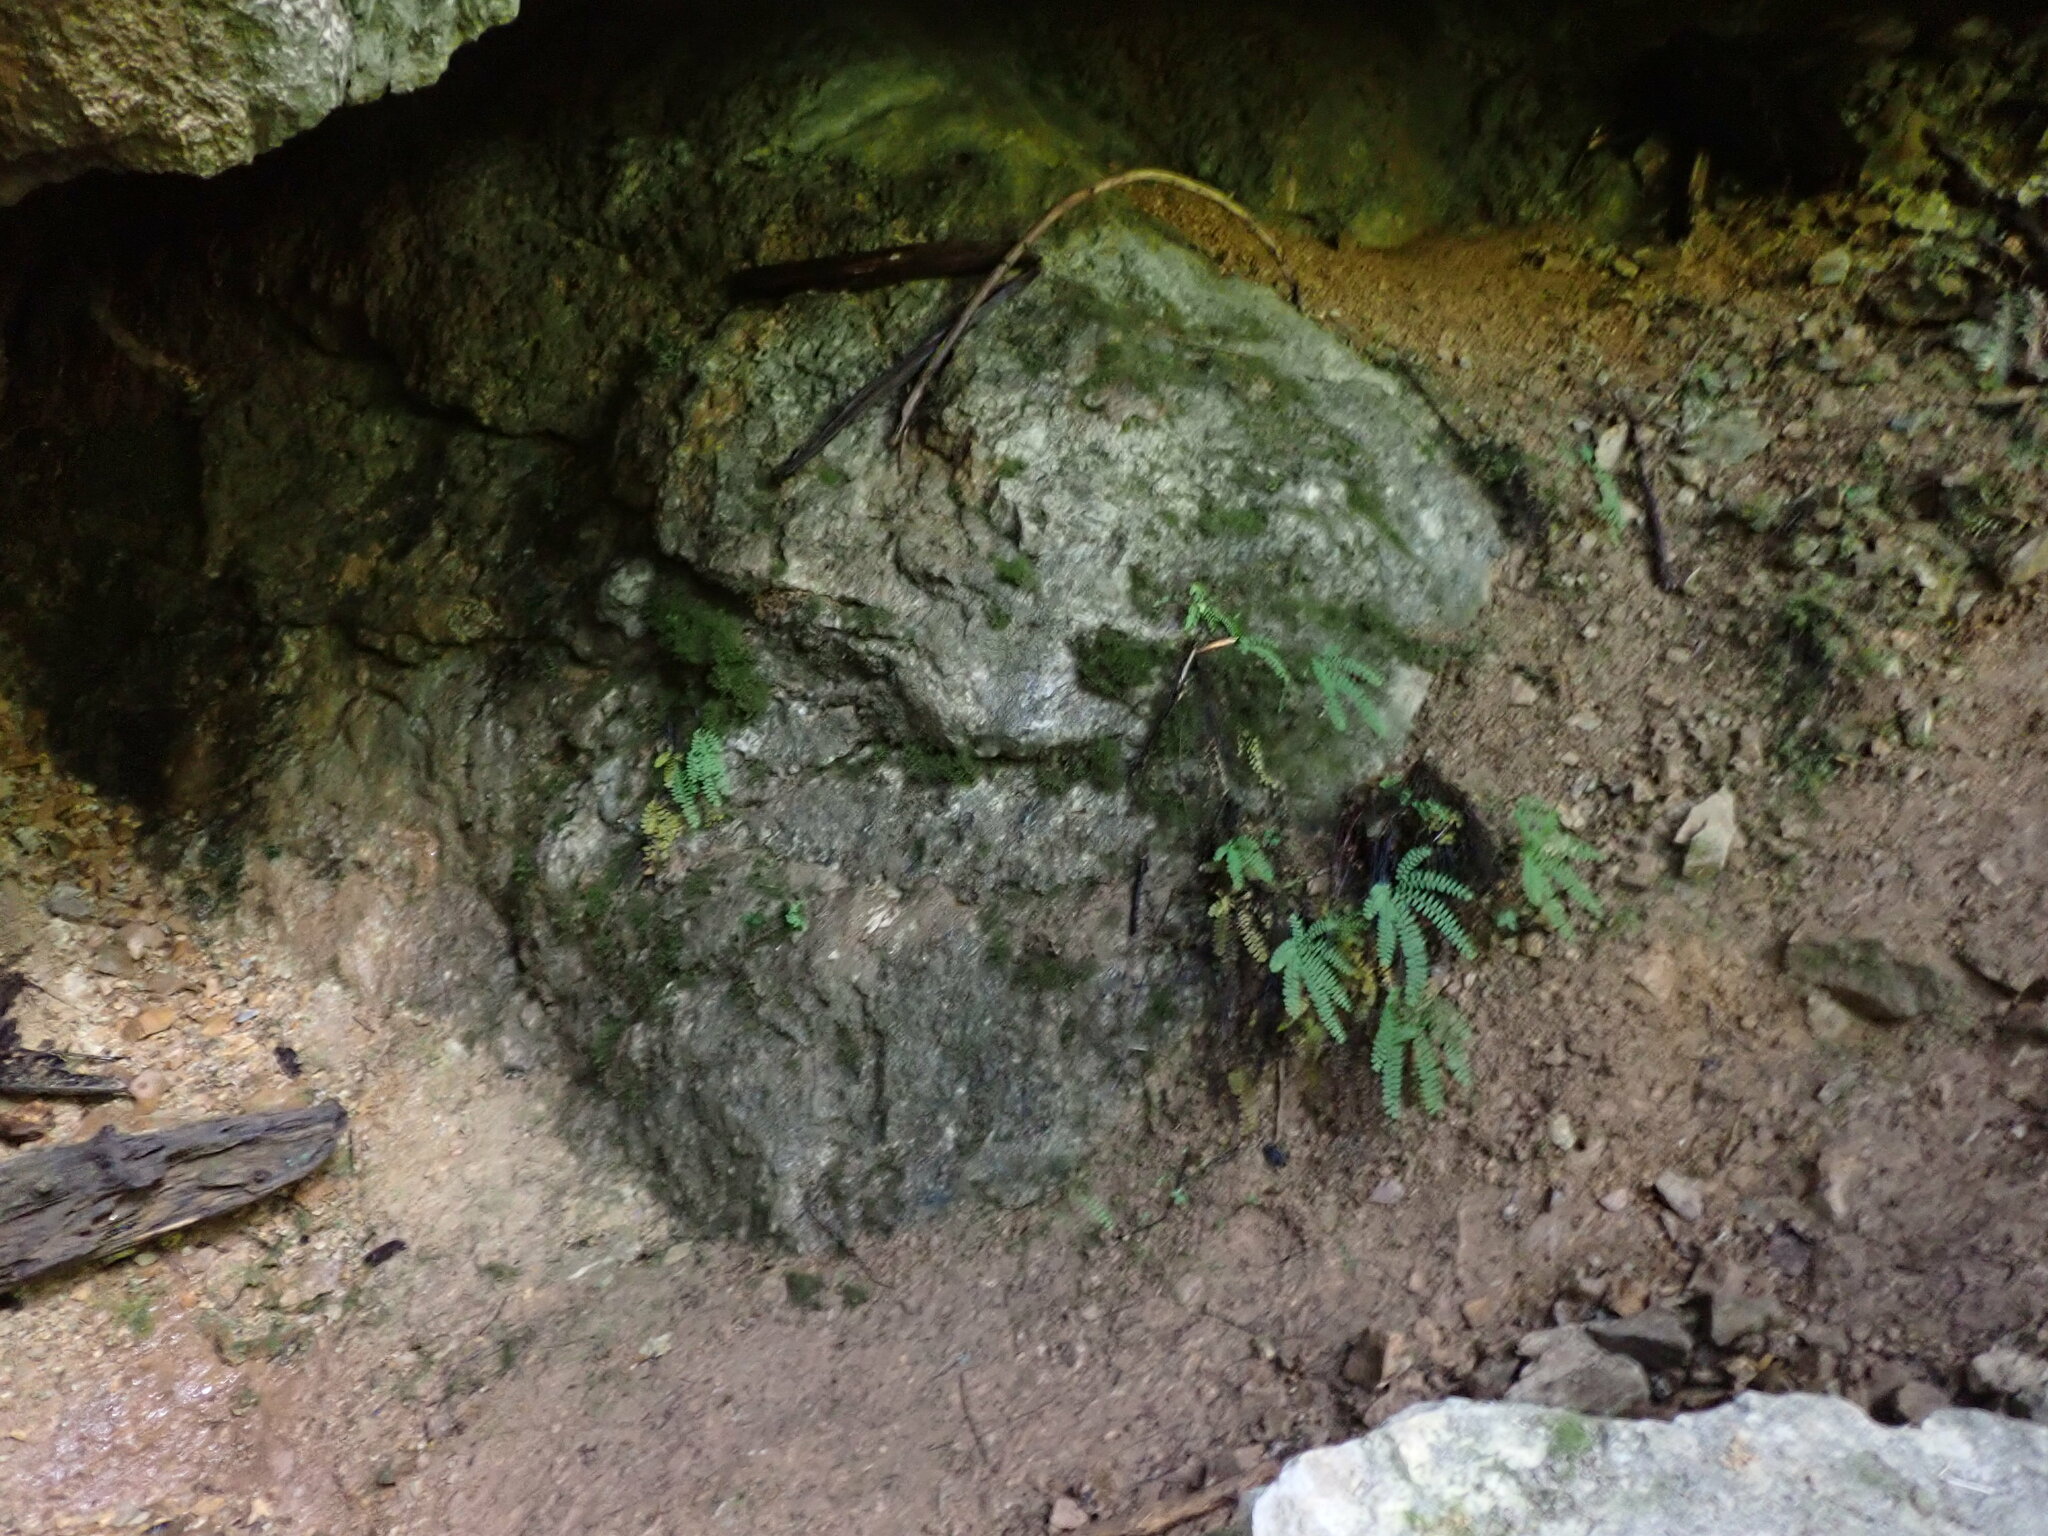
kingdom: Plantae
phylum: Tracheophyta
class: Polypodiopsida
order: Polypodiales
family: Pteridaceae
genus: Adiantum
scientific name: Adiantum aleuticum
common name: Aleutian maidenhair fern
